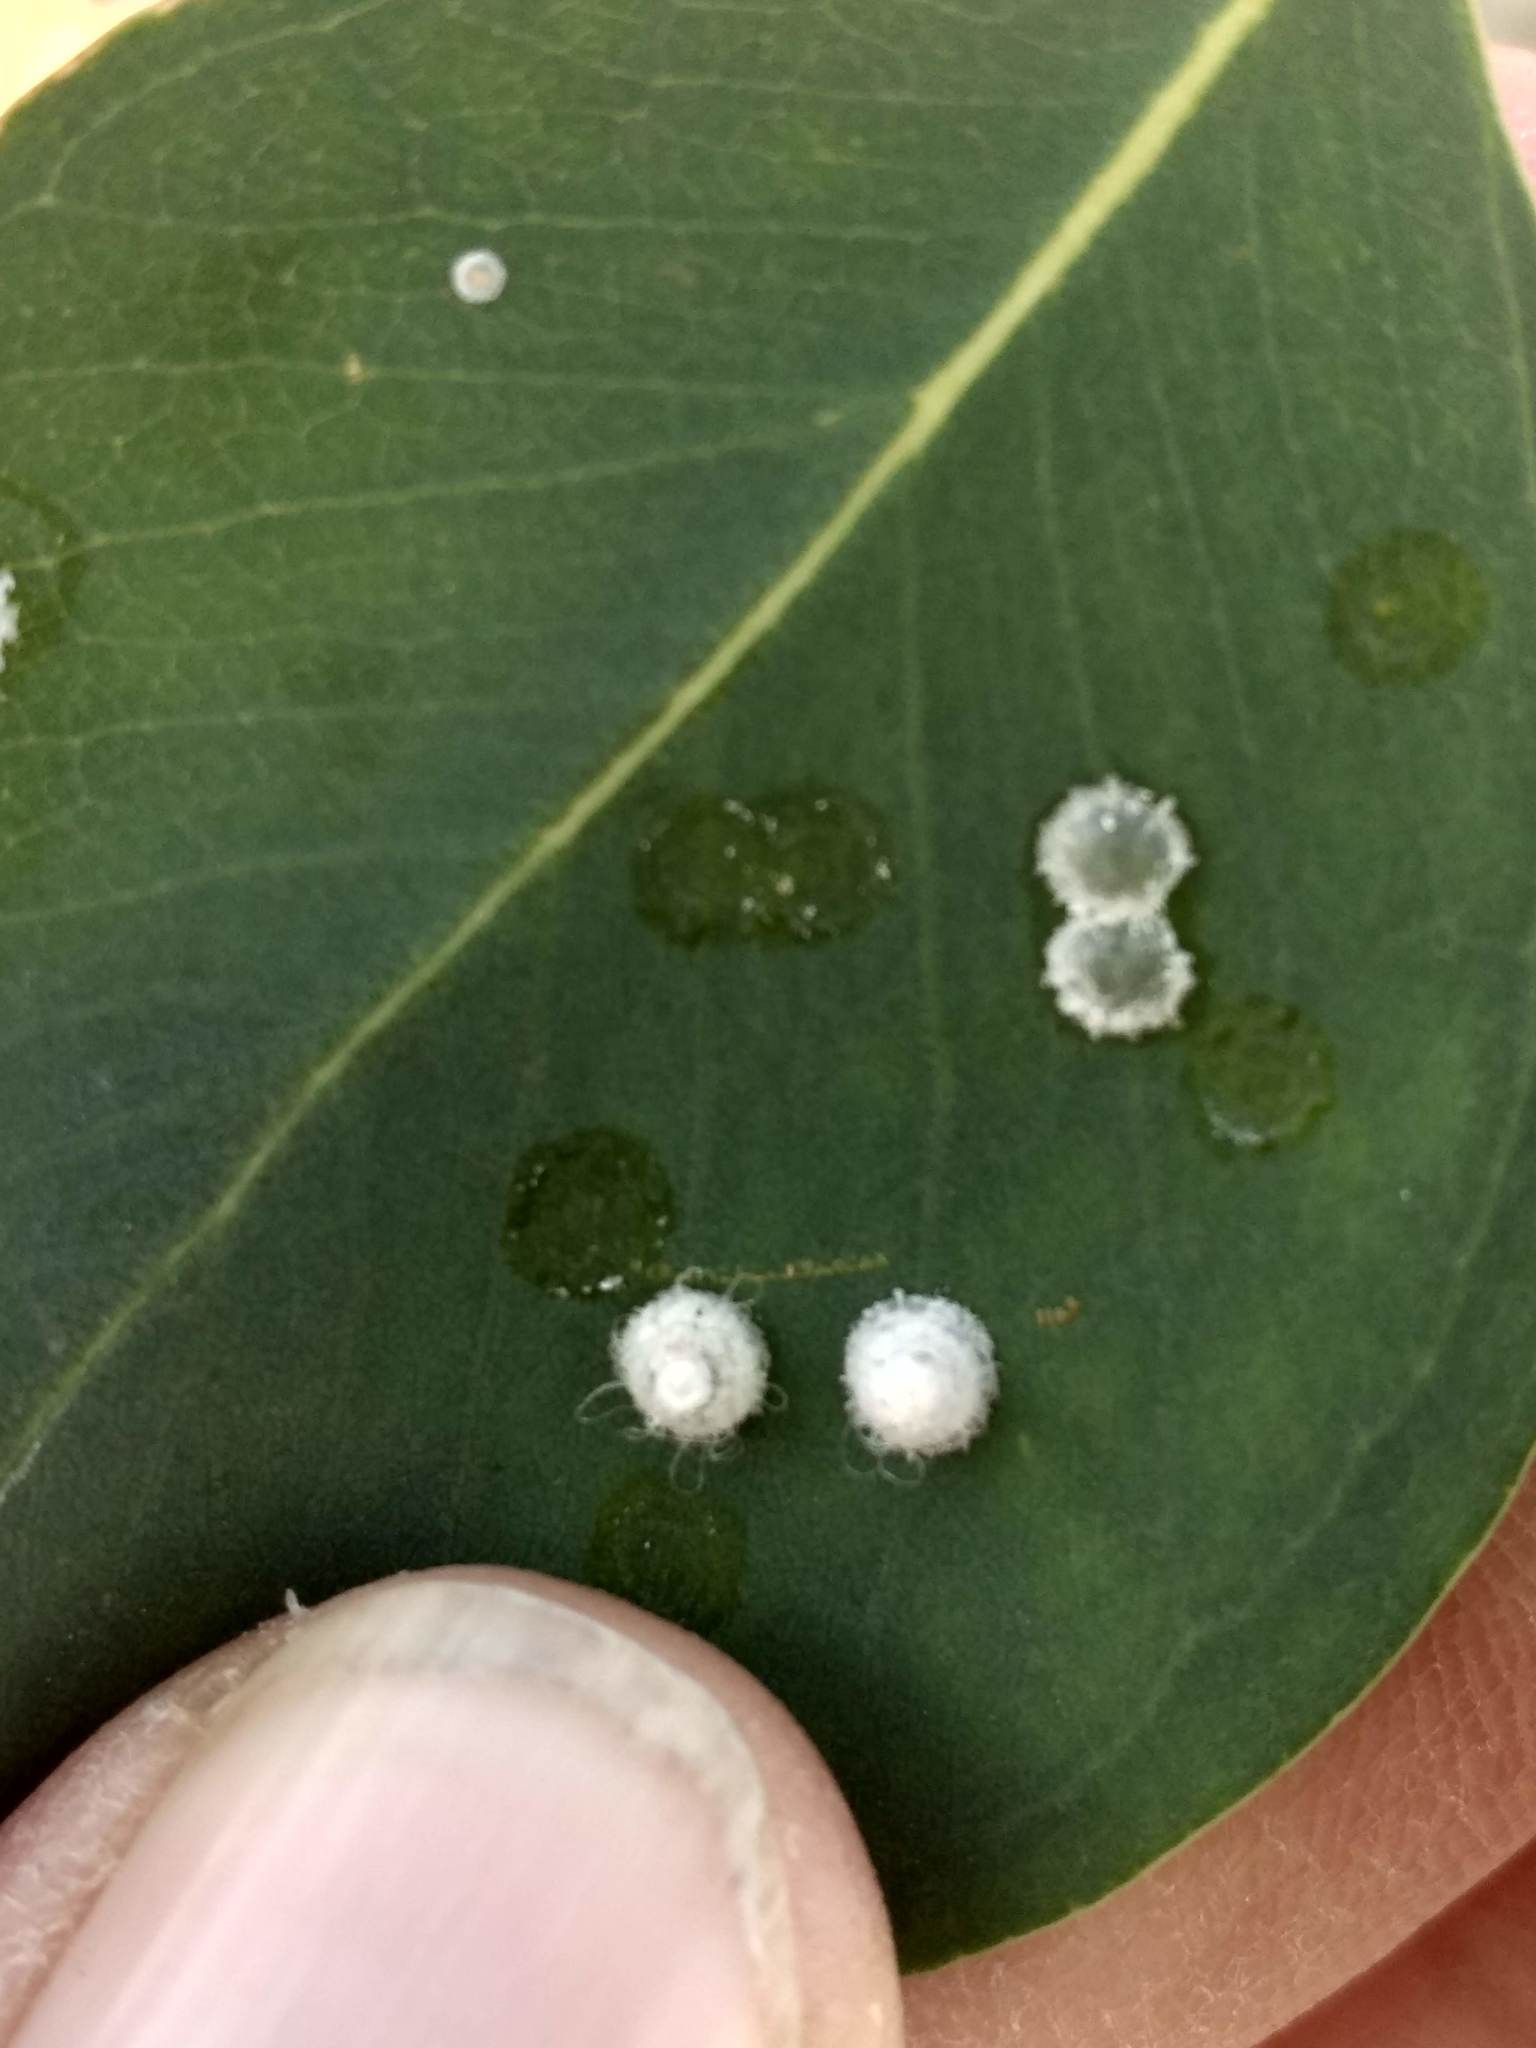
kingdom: Animalia
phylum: Arthropoda
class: Insecta
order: Hemiptera
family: Aphalaridae
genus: Glycaspis
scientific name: Glycaspis brimblecombei
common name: Red gum lerp psyllid
